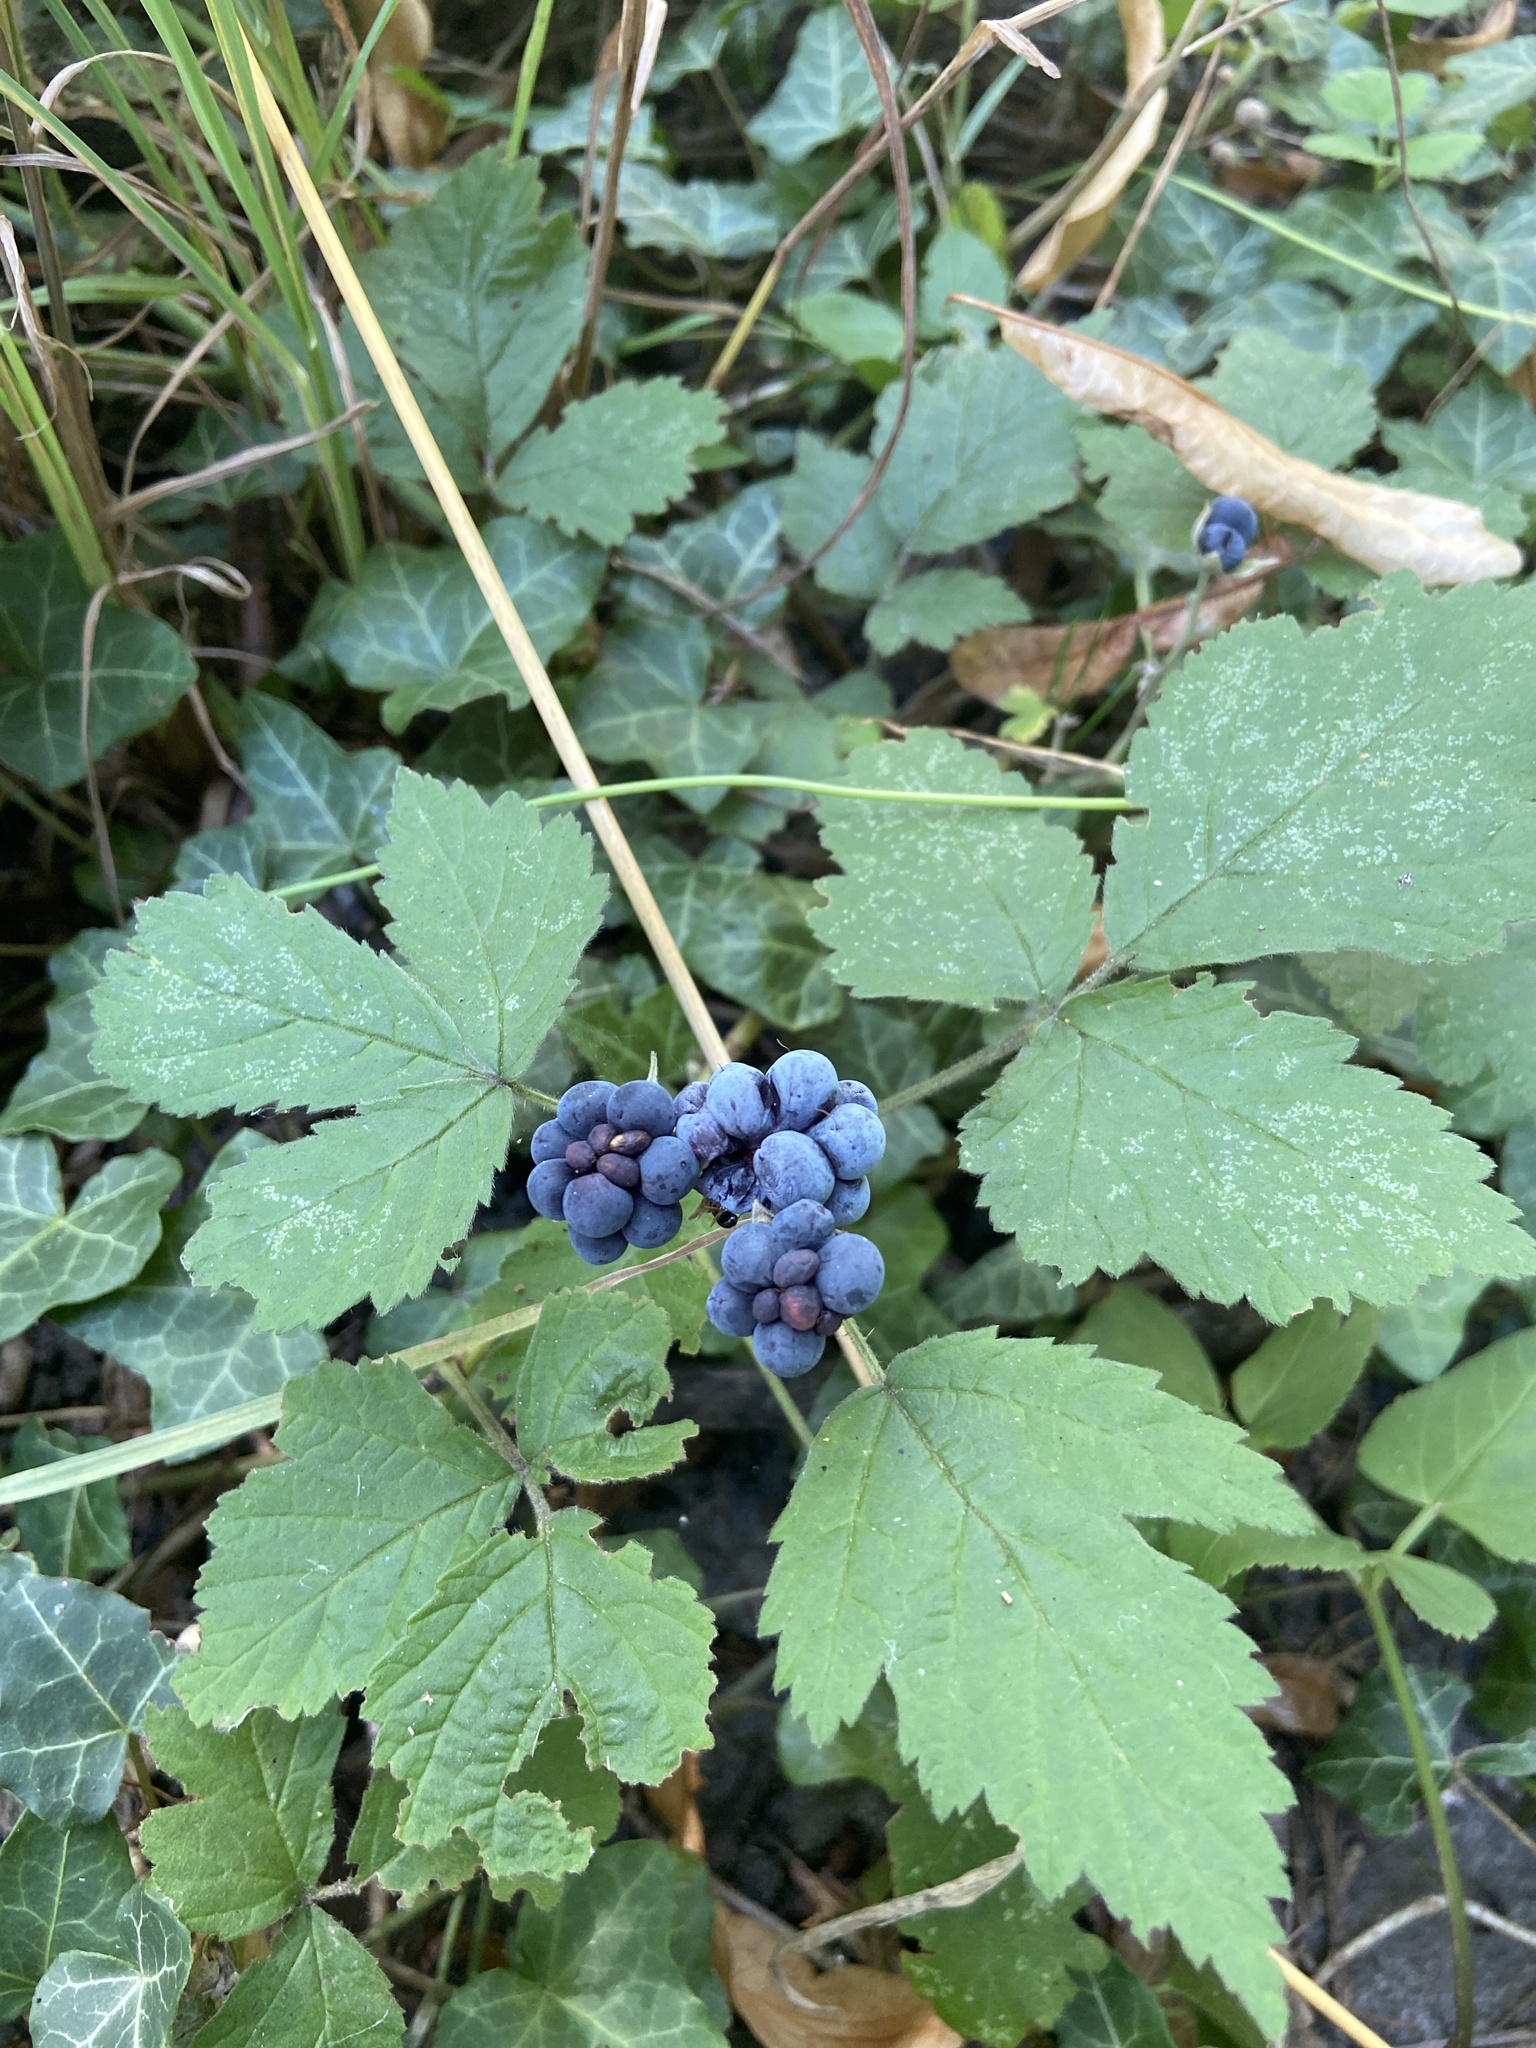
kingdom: Plantae
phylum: Tracheophyta
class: Magnoliopsida
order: Rosales
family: Rosaceae
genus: Rubus
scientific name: Rubus caesius
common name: Dewberry
